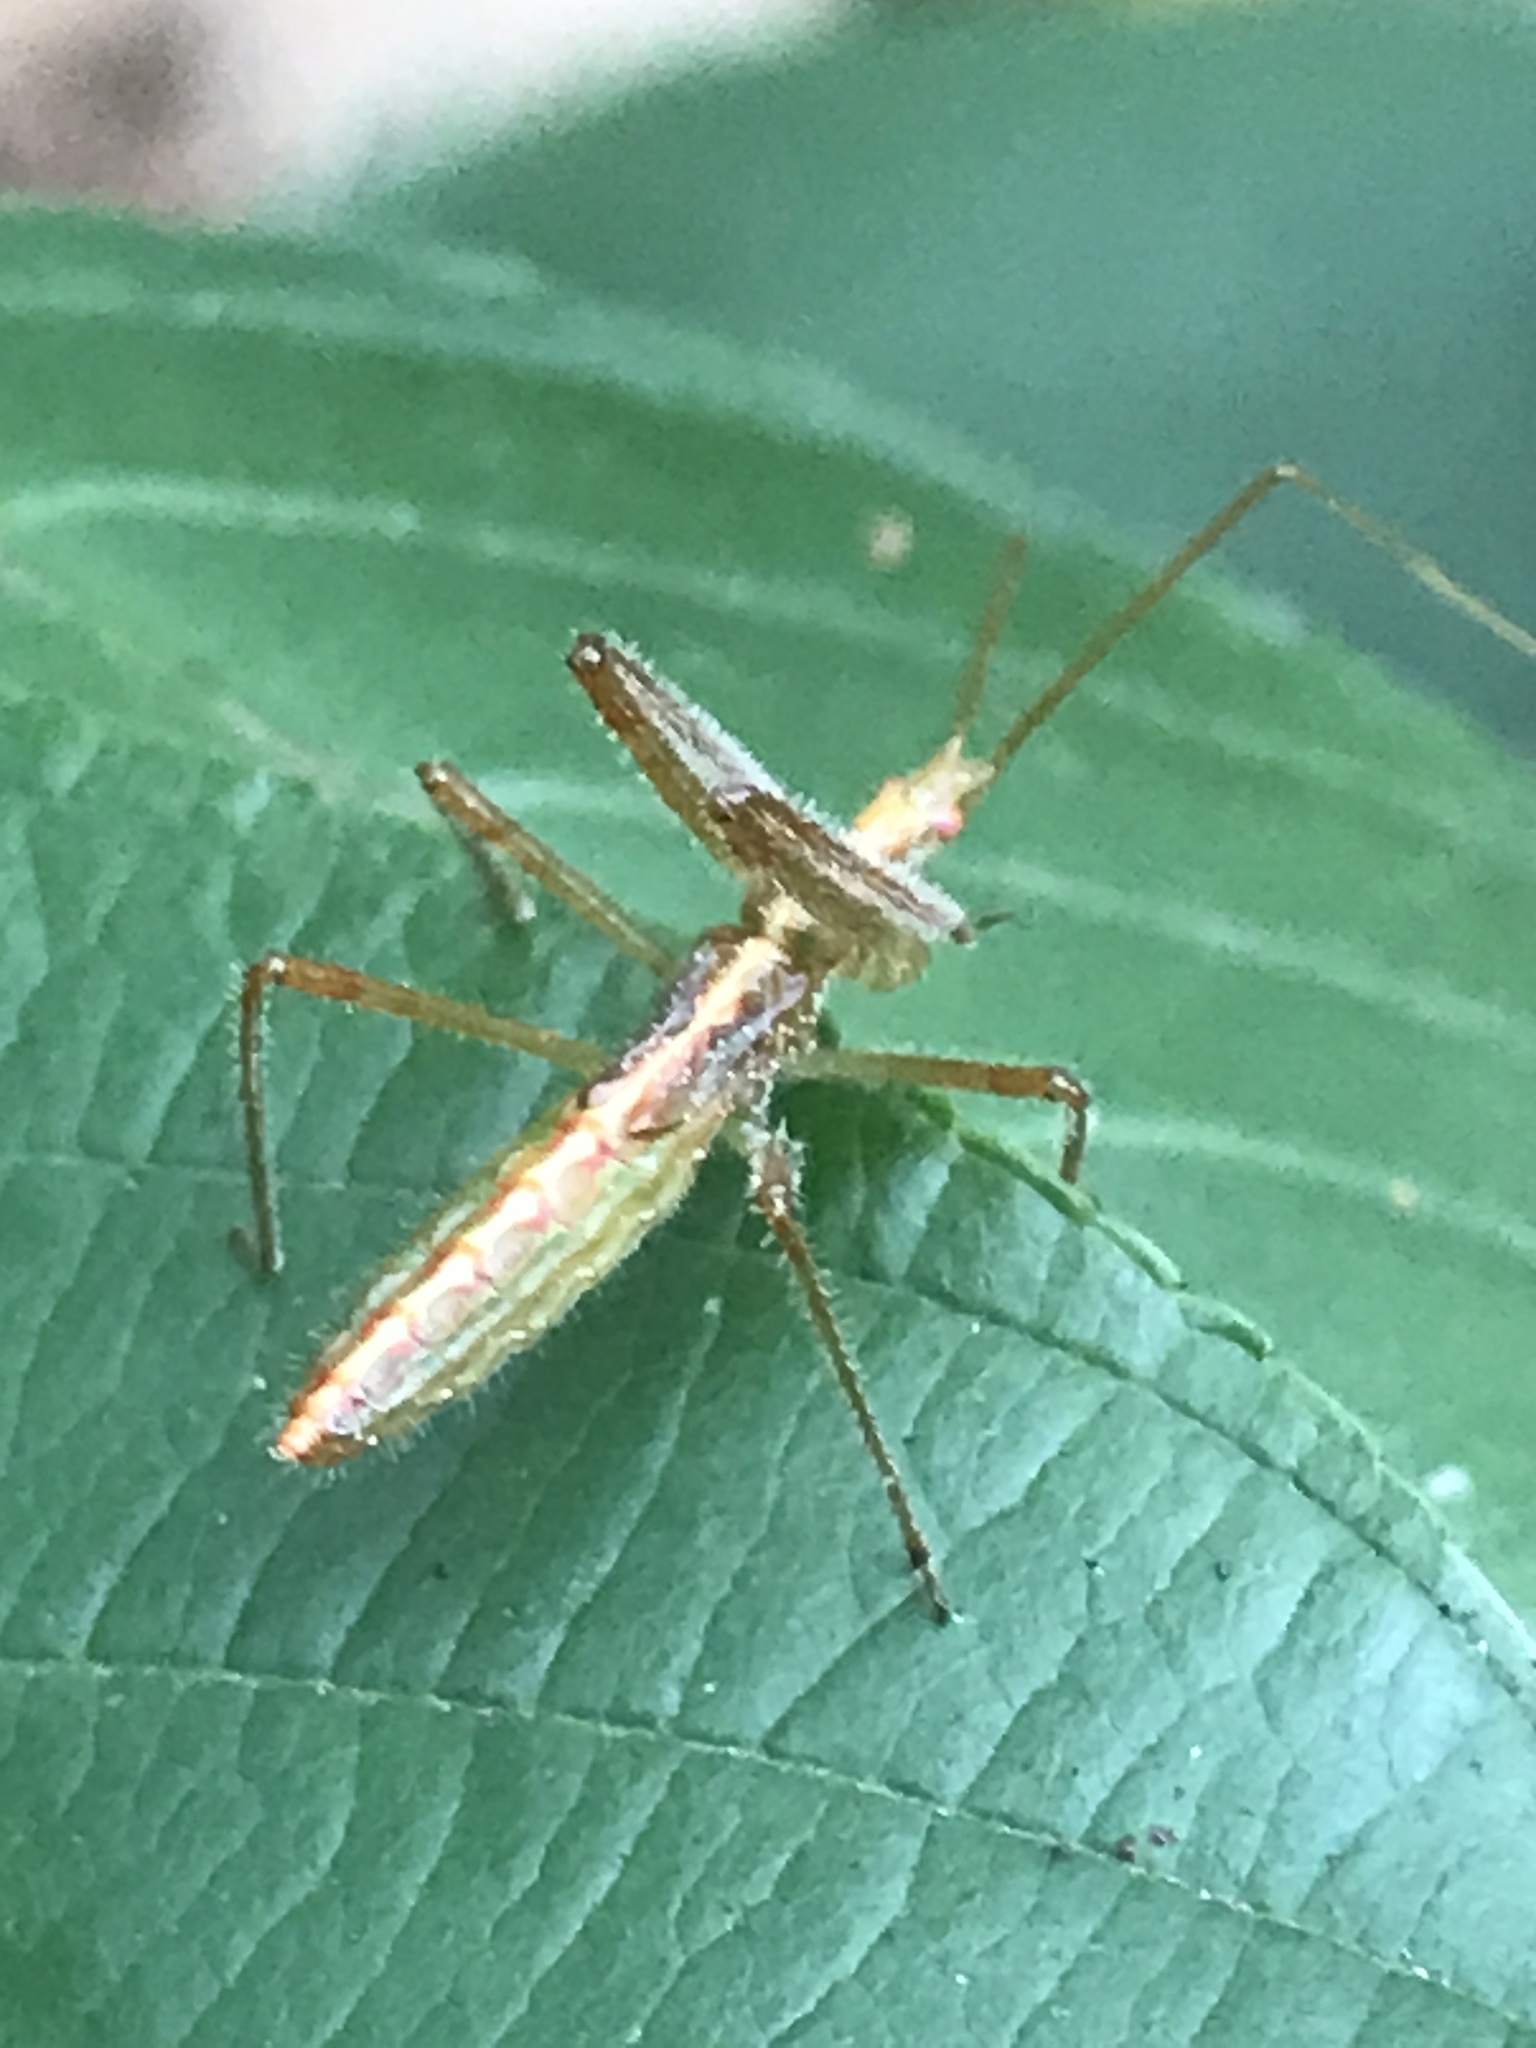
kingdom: Animalia
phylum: Arthropoda
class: Insecta
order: Hemiptera
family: Reduviidae
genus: Zelus
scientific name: Zelus luridus
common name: Pale green assassin bug
